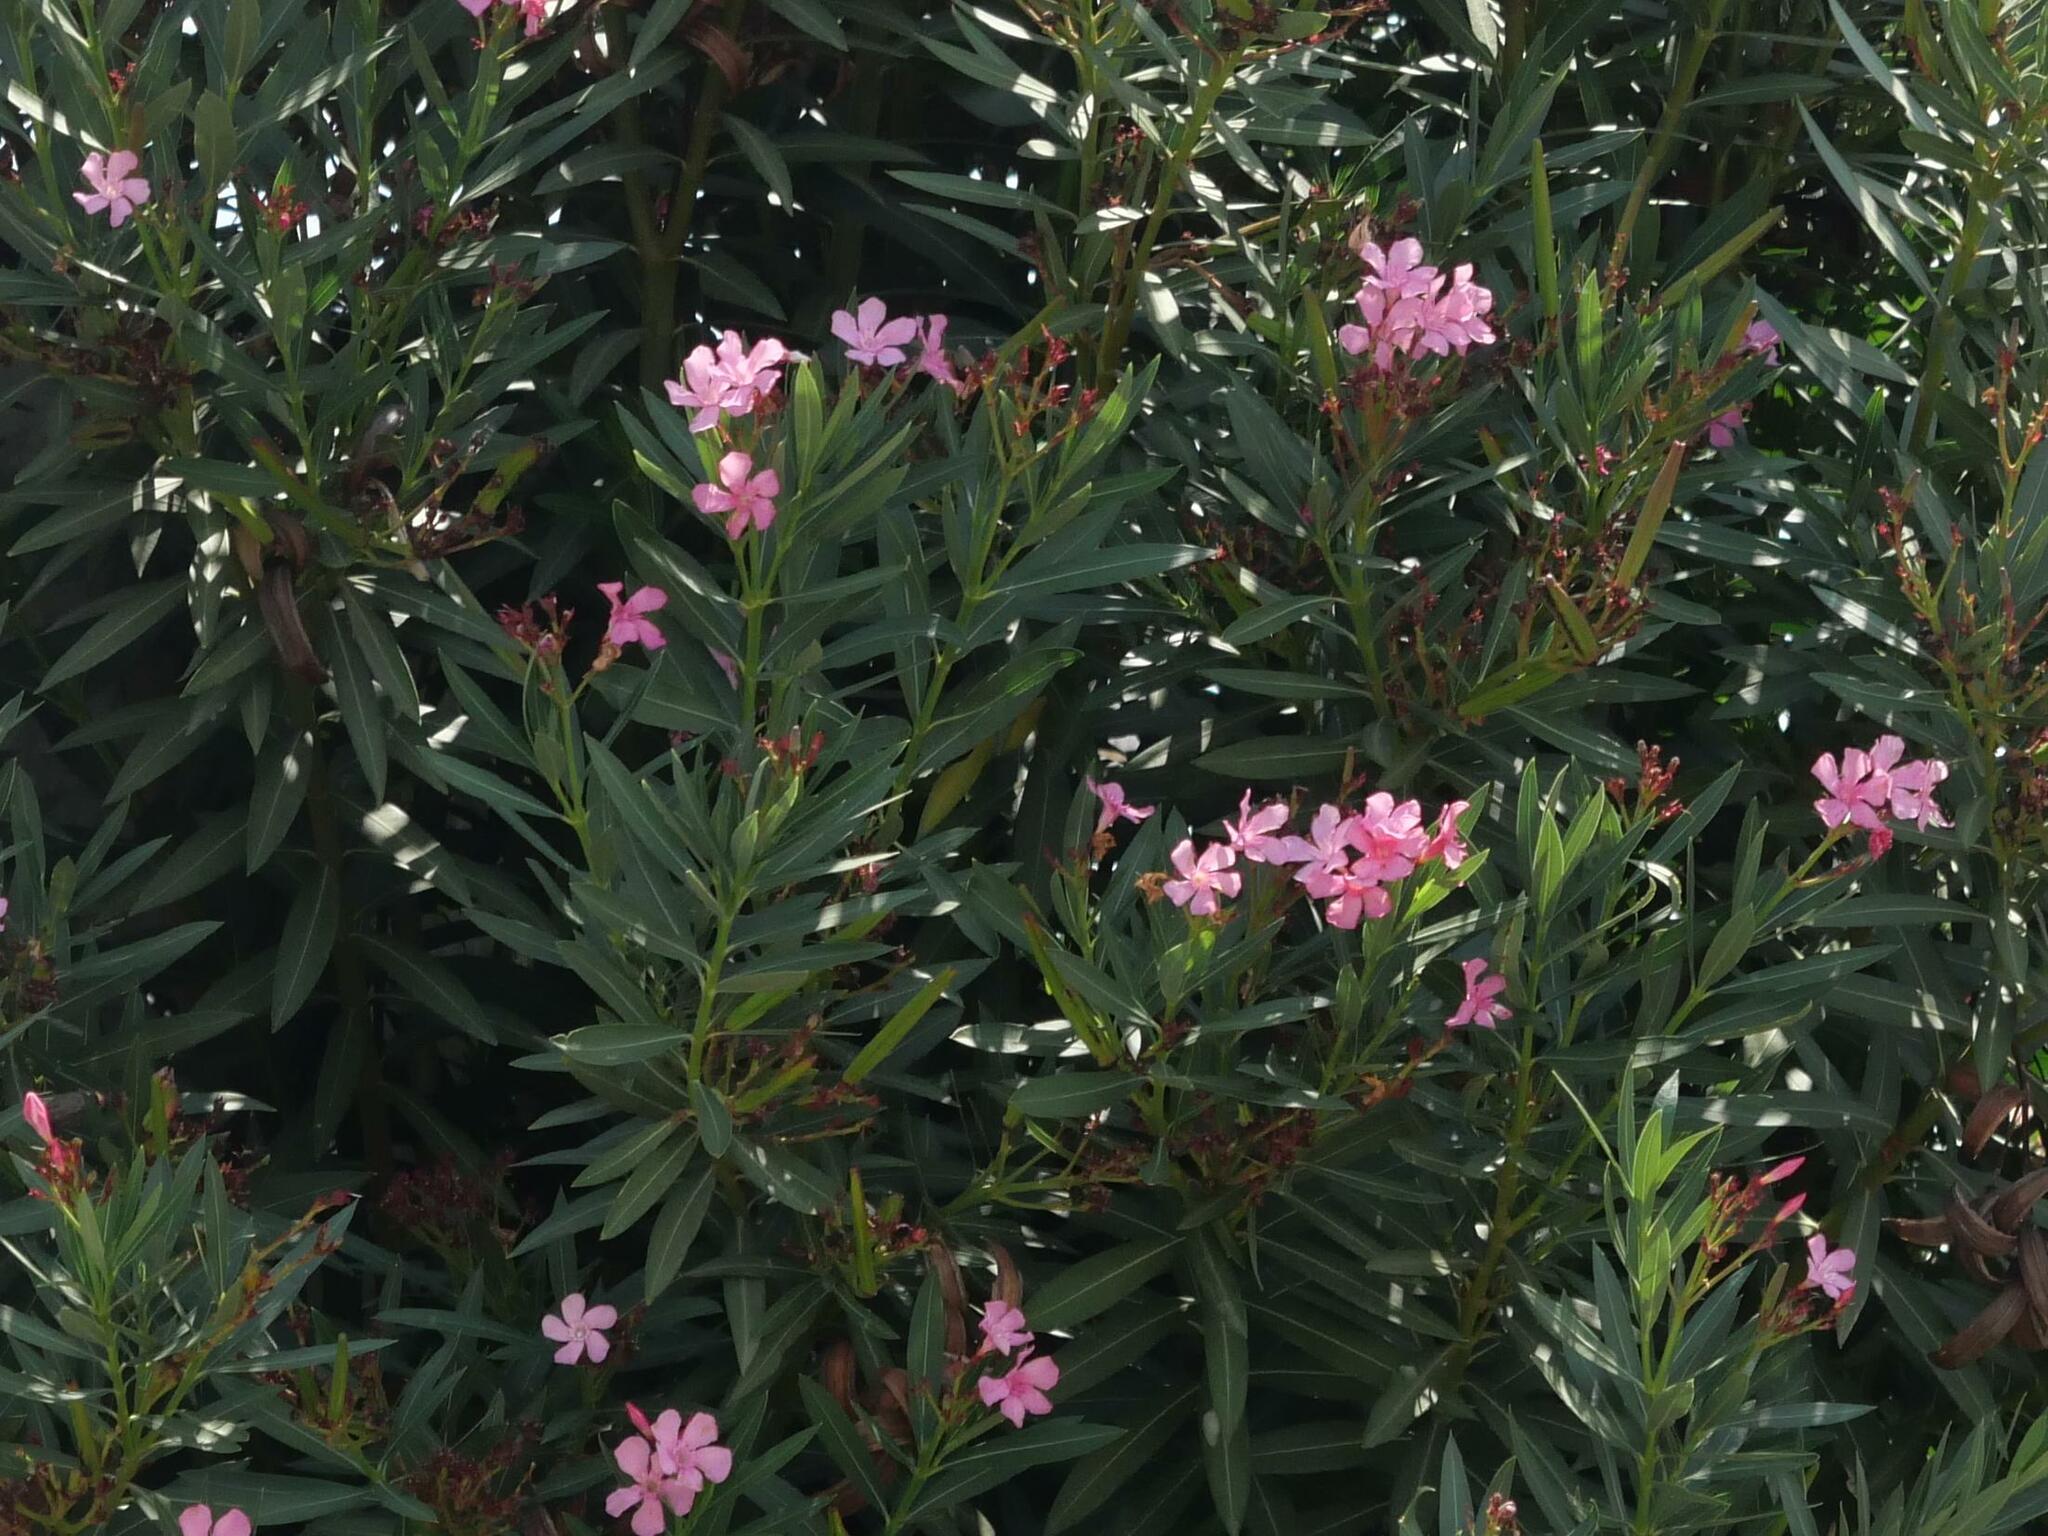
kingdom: Plantae
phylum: Tracheophyta
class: Magnoliopsida
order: Gentianales
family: Apocynaceae
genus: Nerium
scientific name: Nerium oleander
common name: Oleander
